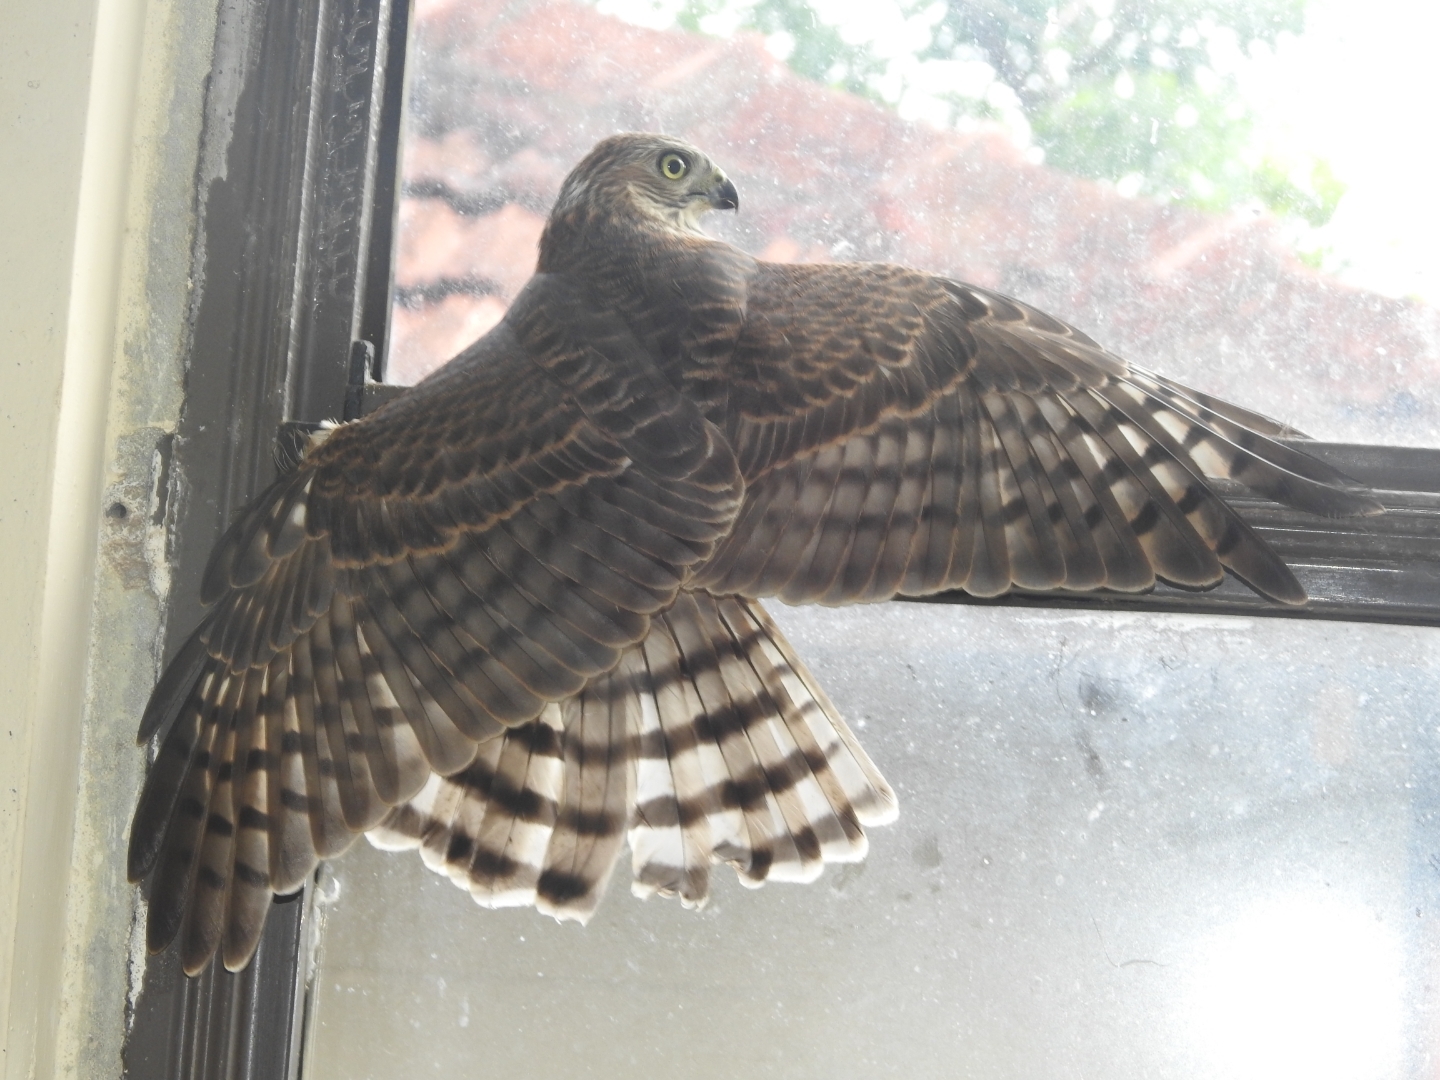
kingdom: Animalia
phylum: Chordata
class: Aves
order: Accipitriformes
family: Accipitridae
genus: Accipiter
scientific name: Accipiter badius
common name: Shikra
